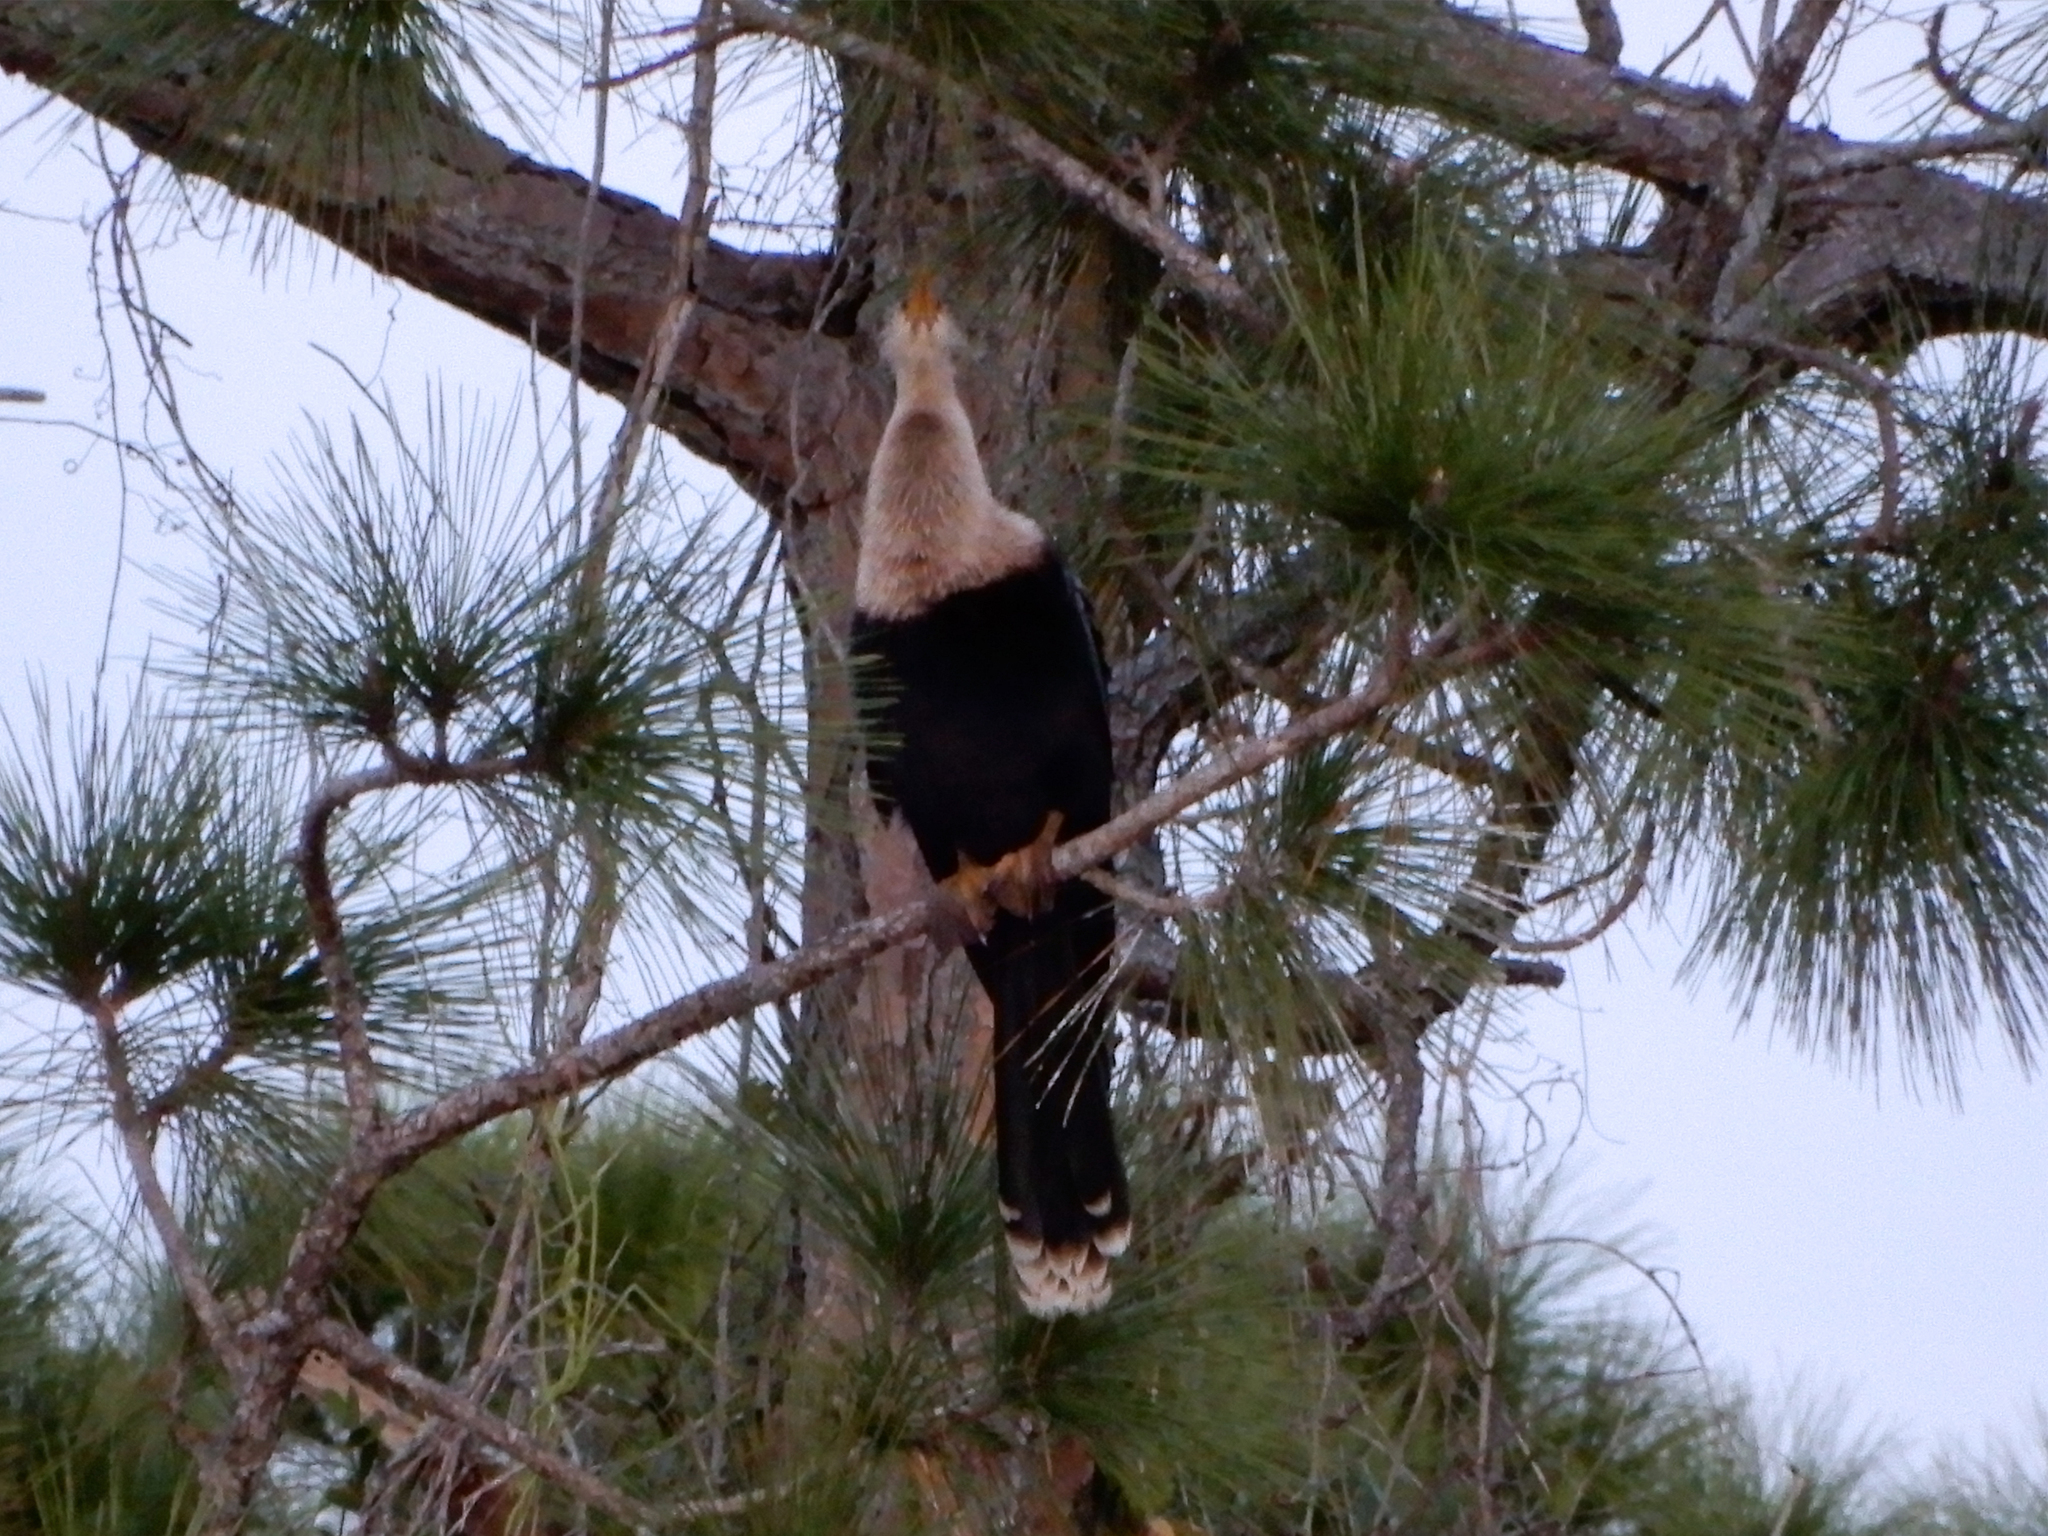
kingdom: Animalia
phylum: Chordata
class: Aves
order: Suliformes
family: Anhingidae
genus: Anhinga
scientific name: Anhinga anhinga
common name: Anhinga
